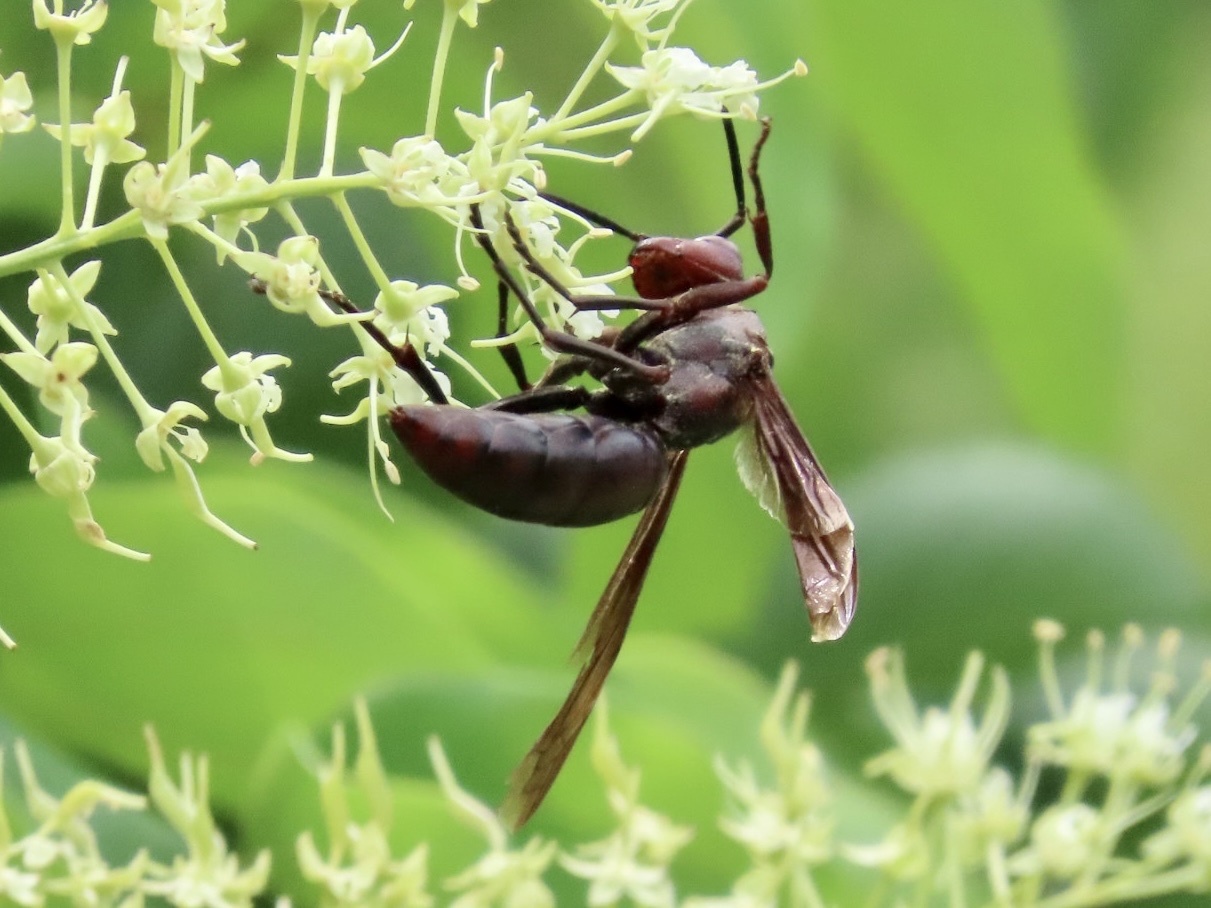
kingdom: Animalia
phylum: Arthropoda
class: Insecta
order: Hymenoptera
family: Eumenidae
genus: Polistes
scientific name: Polistes gigas
